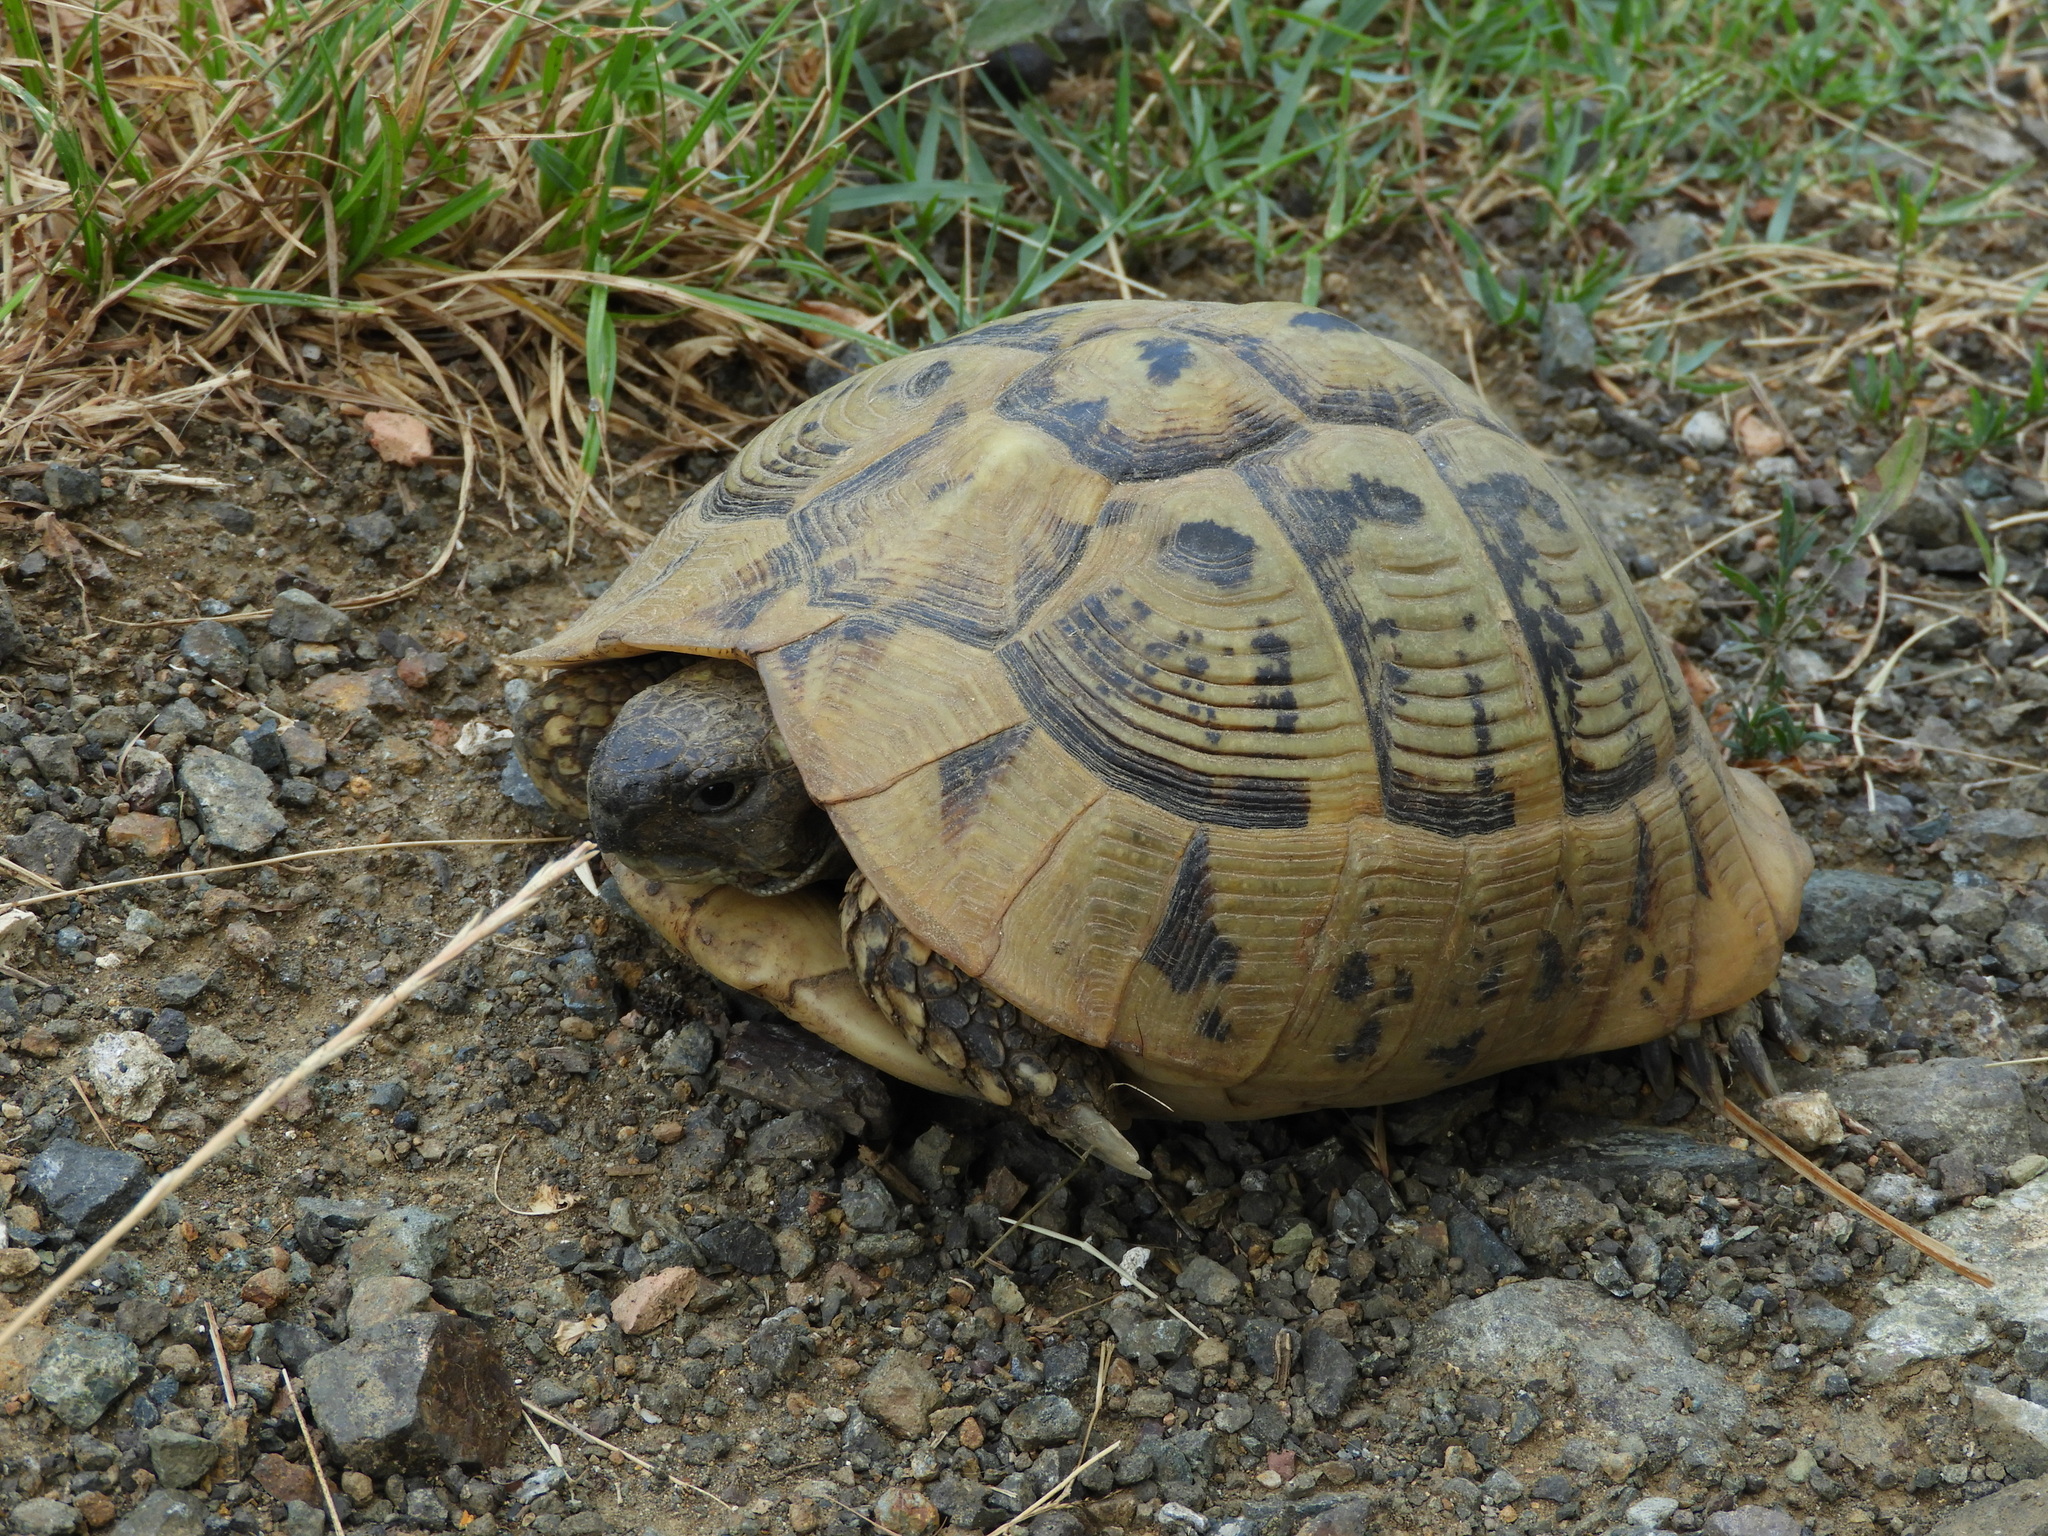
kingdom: Animalia
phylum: Chordata
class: Testudines
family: Testudinidae
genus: Testudo
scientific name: Testudo hermanni
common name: Hermann's tortoise
